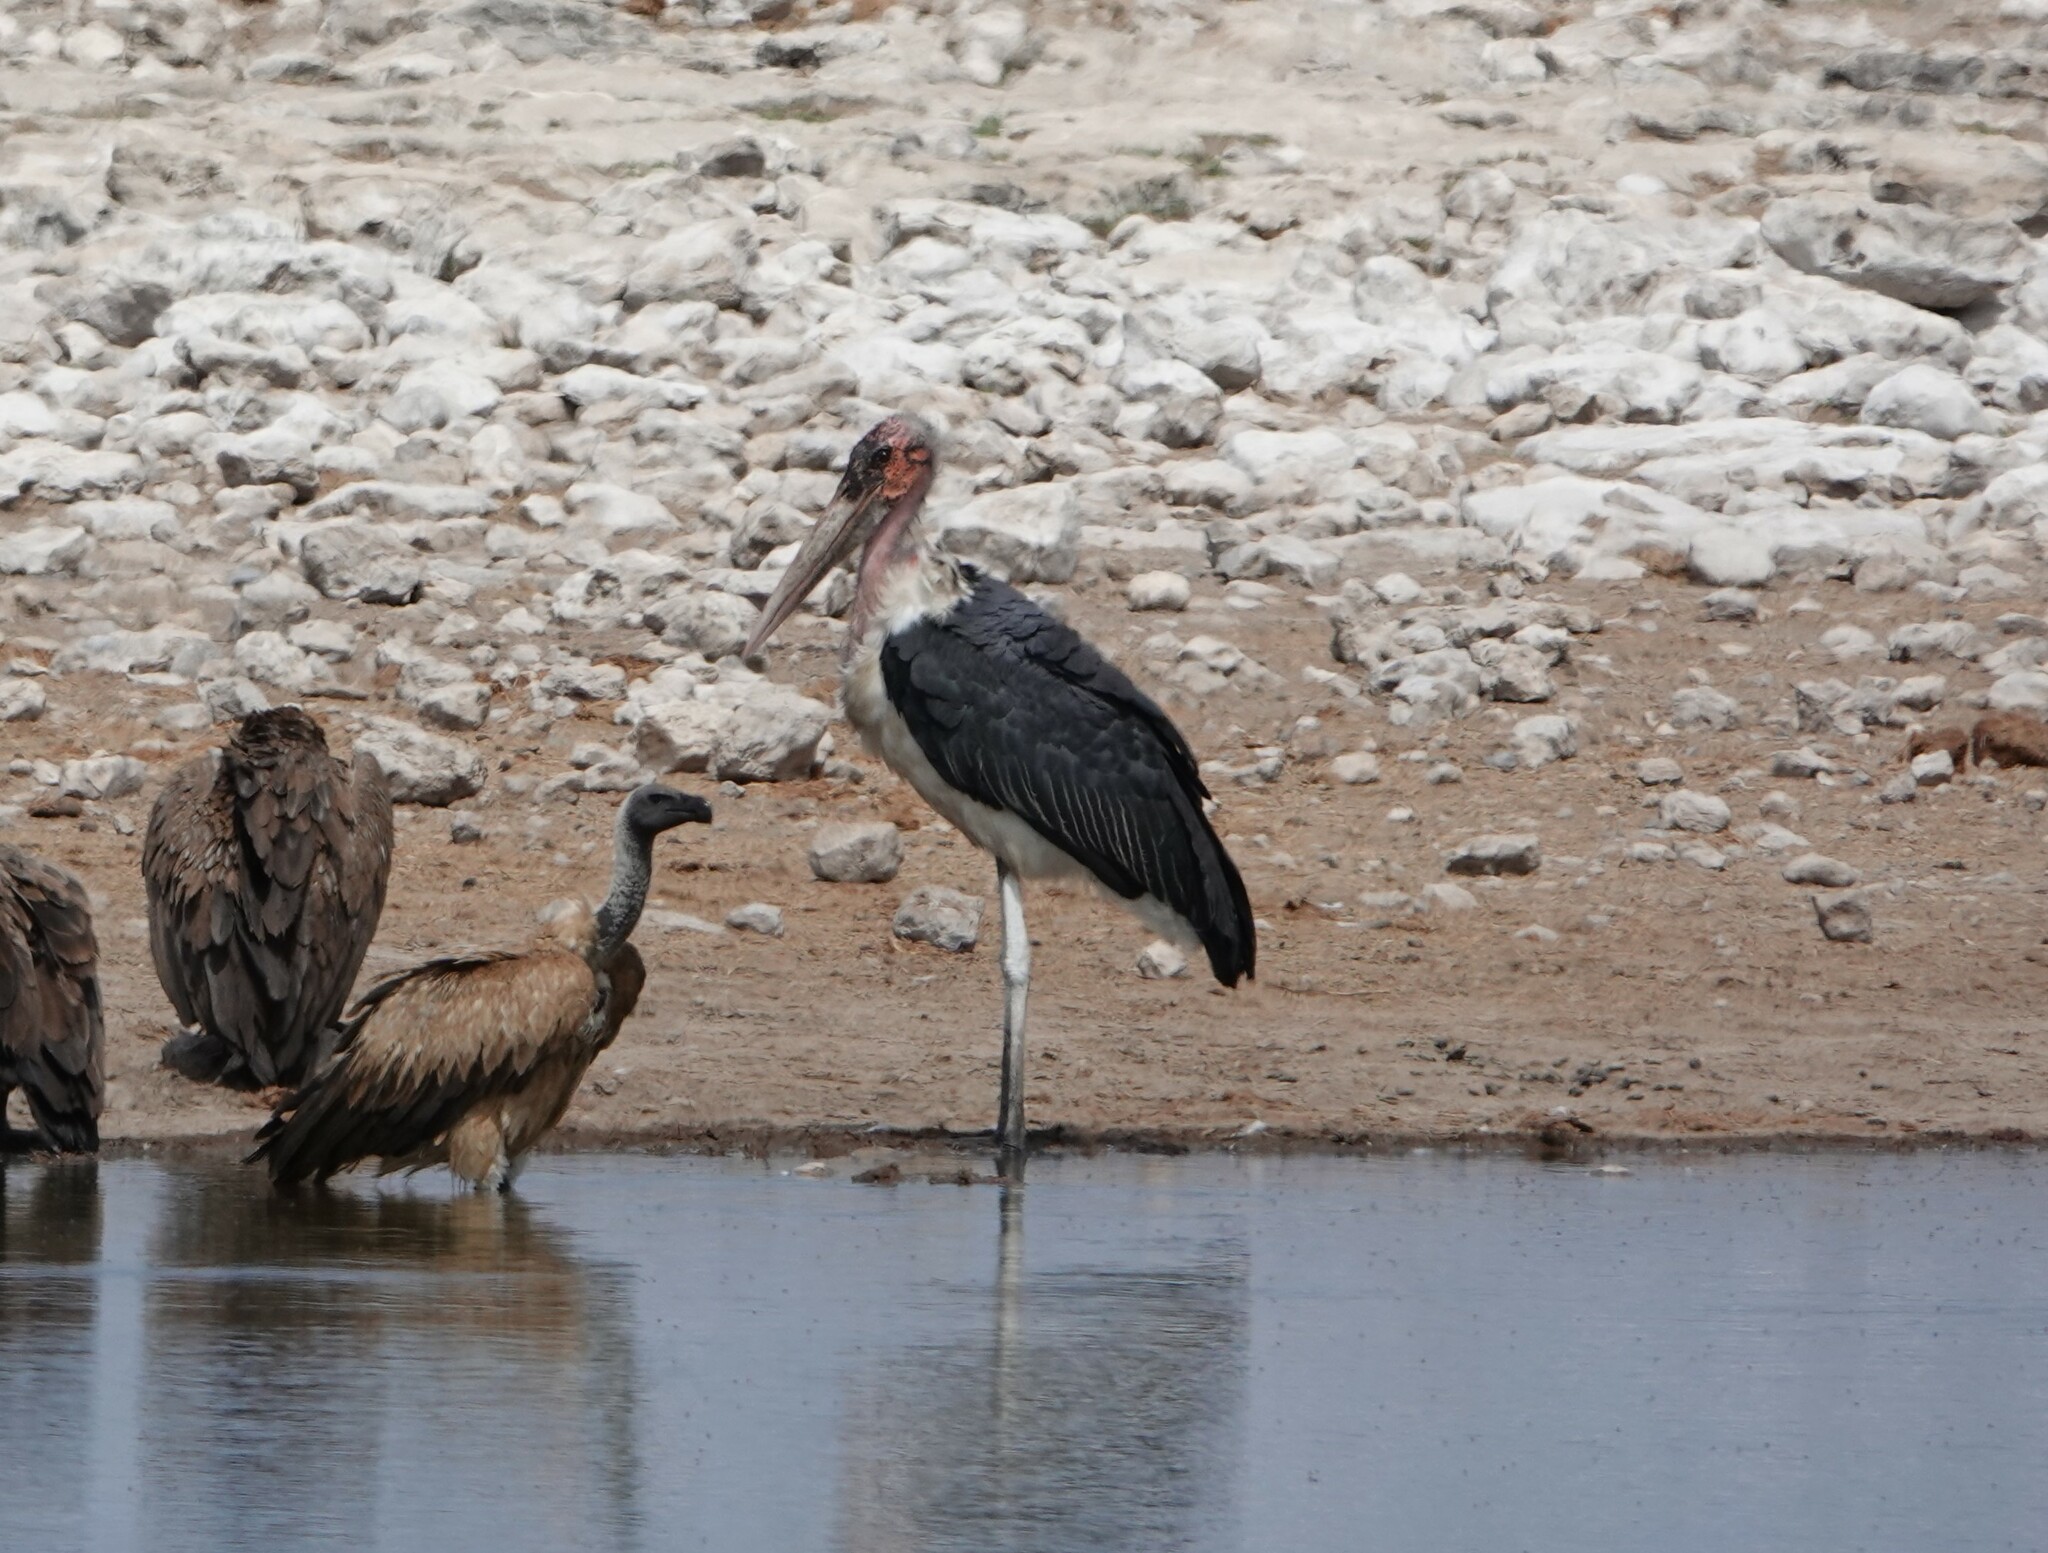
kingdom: Animalia
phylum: Chordata
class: Aves
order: Ciconiiformes
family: Ciconiidae
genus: Leptoptilos
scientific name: Leptoptilos crumenifer
